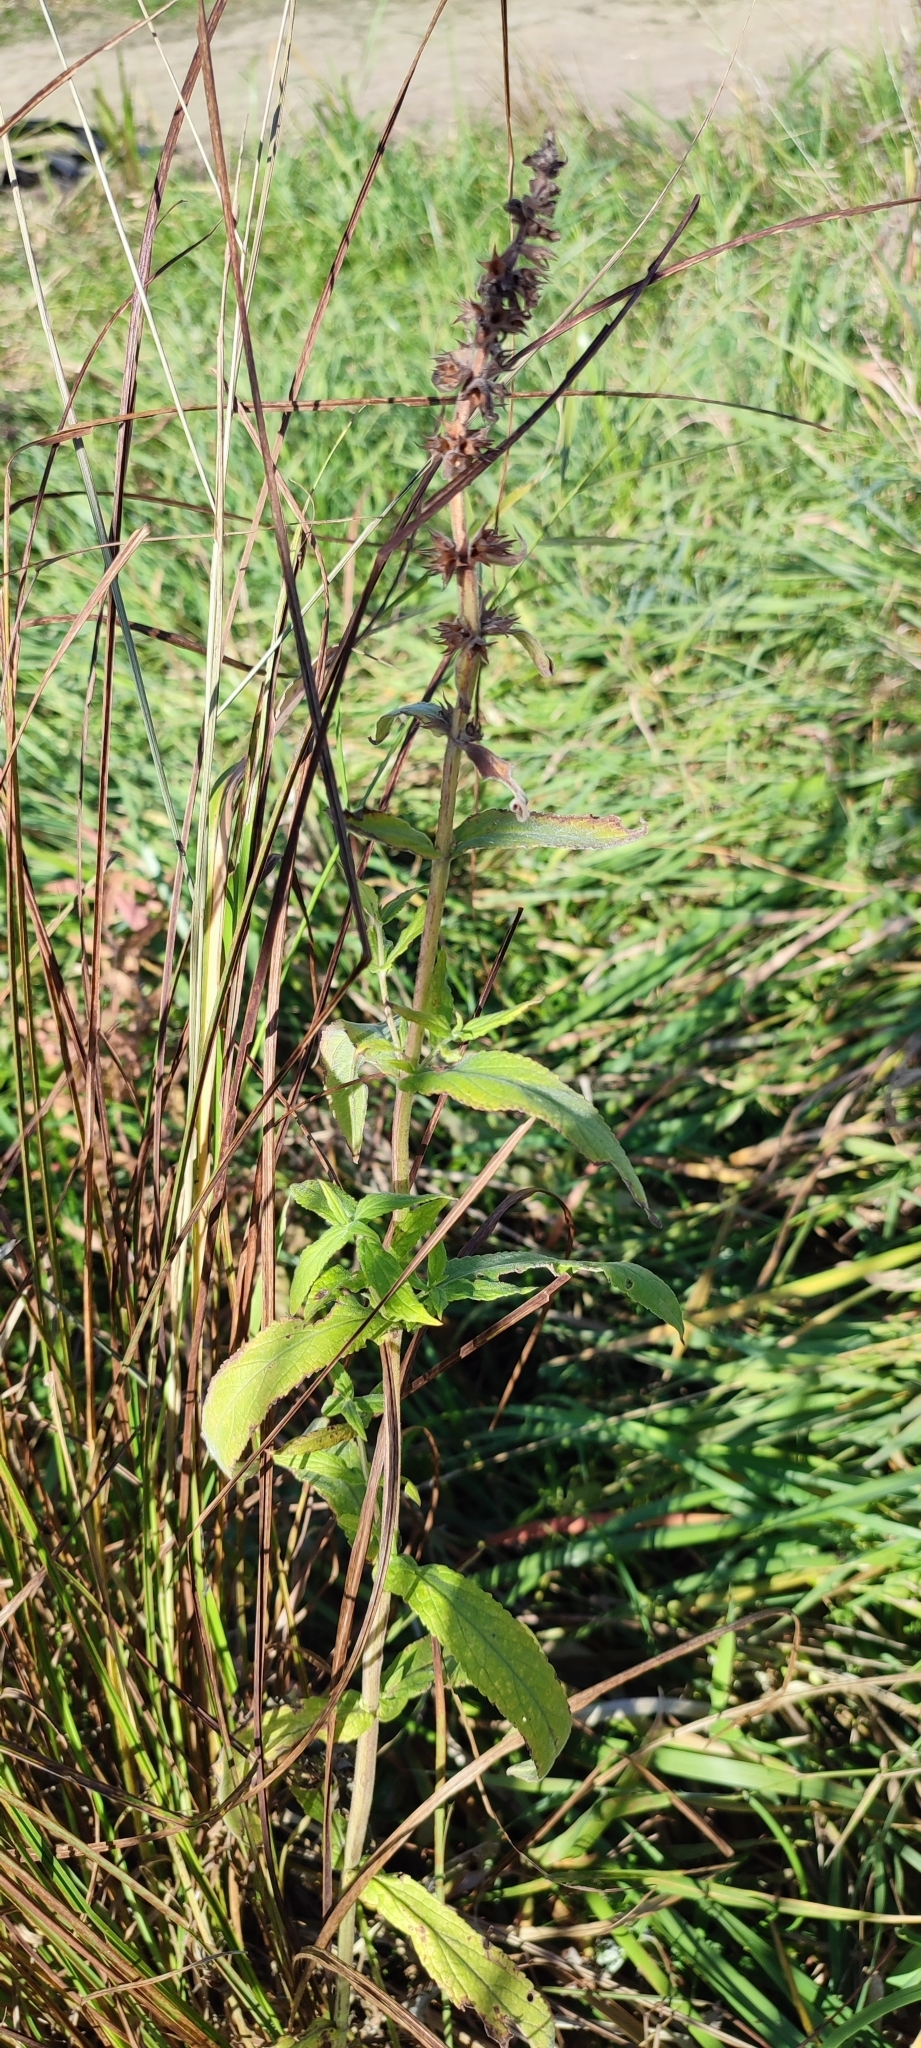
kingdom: Plantae
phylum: Tracheophyta
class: Magnoliopsida
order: Lamiales
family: Lamiaceae
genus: Stachys
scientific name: Stachys palustris
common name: Marsh woundwort
